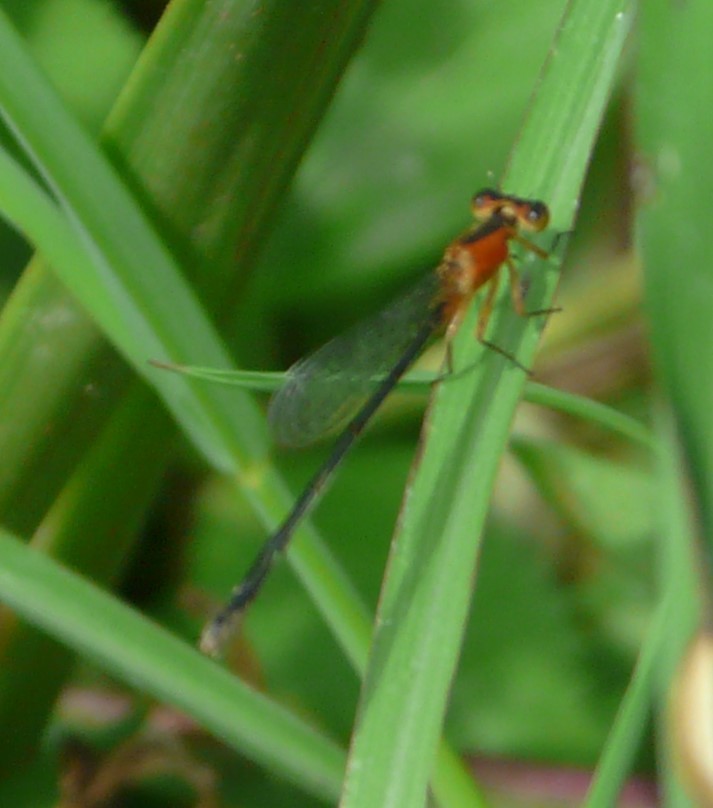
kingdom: Animalia
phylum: Arthropoda
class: Insecta
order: Odonata
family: Coenagrionidae
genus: Ischnura
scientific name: Ischnura ramburii
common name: Rambur's forktail
